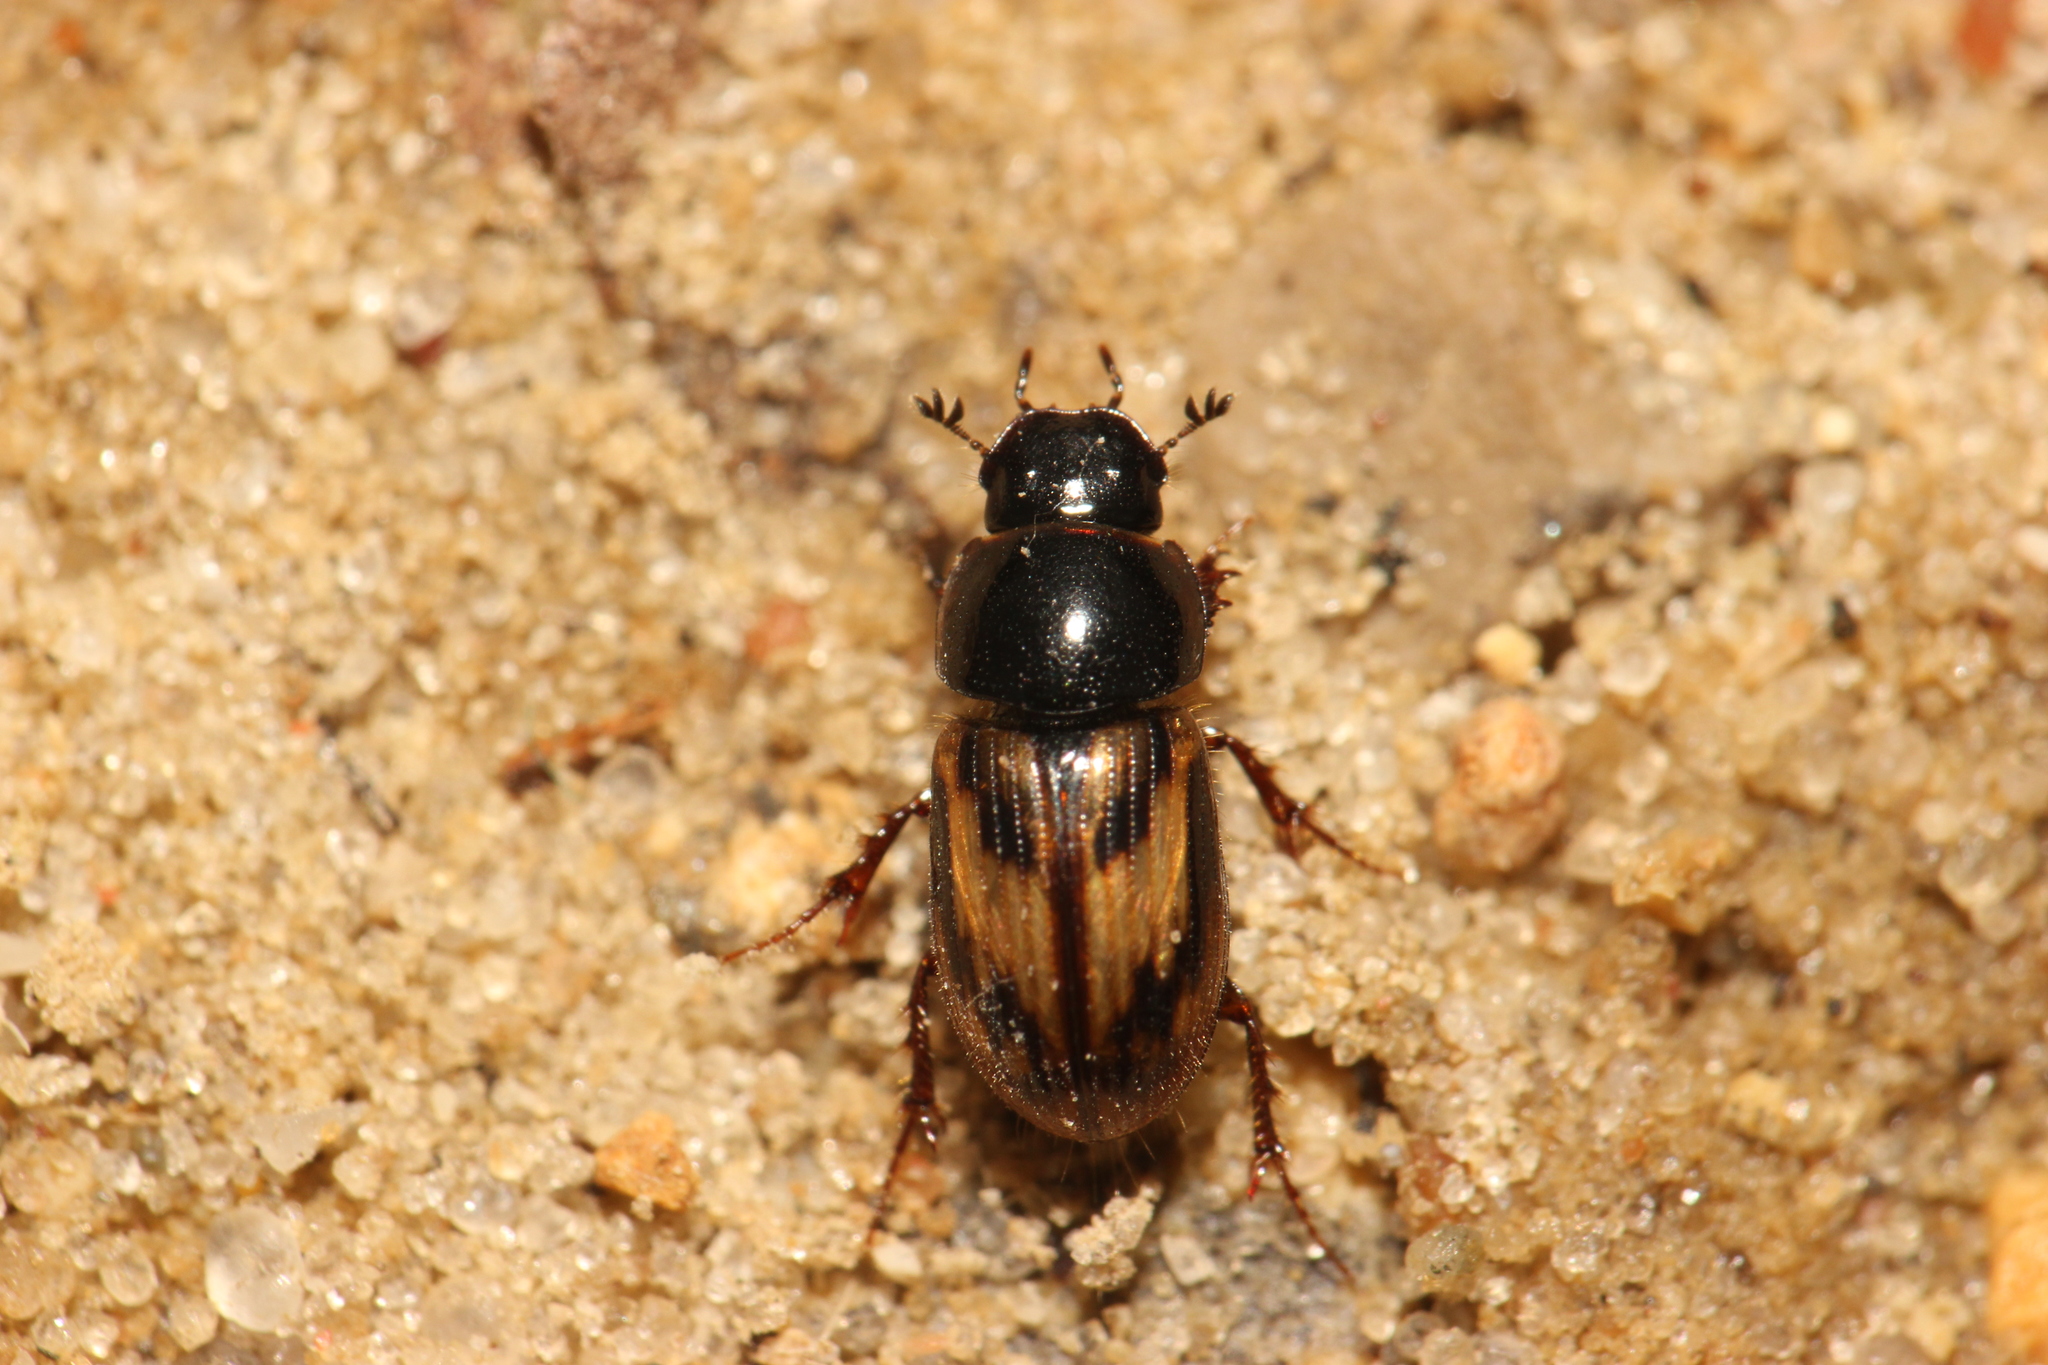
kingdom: Animalia
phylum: Arthropoda
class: Insecta
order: Coleoptera
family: Scarabaeidae
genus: Chilothorax
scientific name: Chilothorax distinctus
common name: Maculated dung beetle
